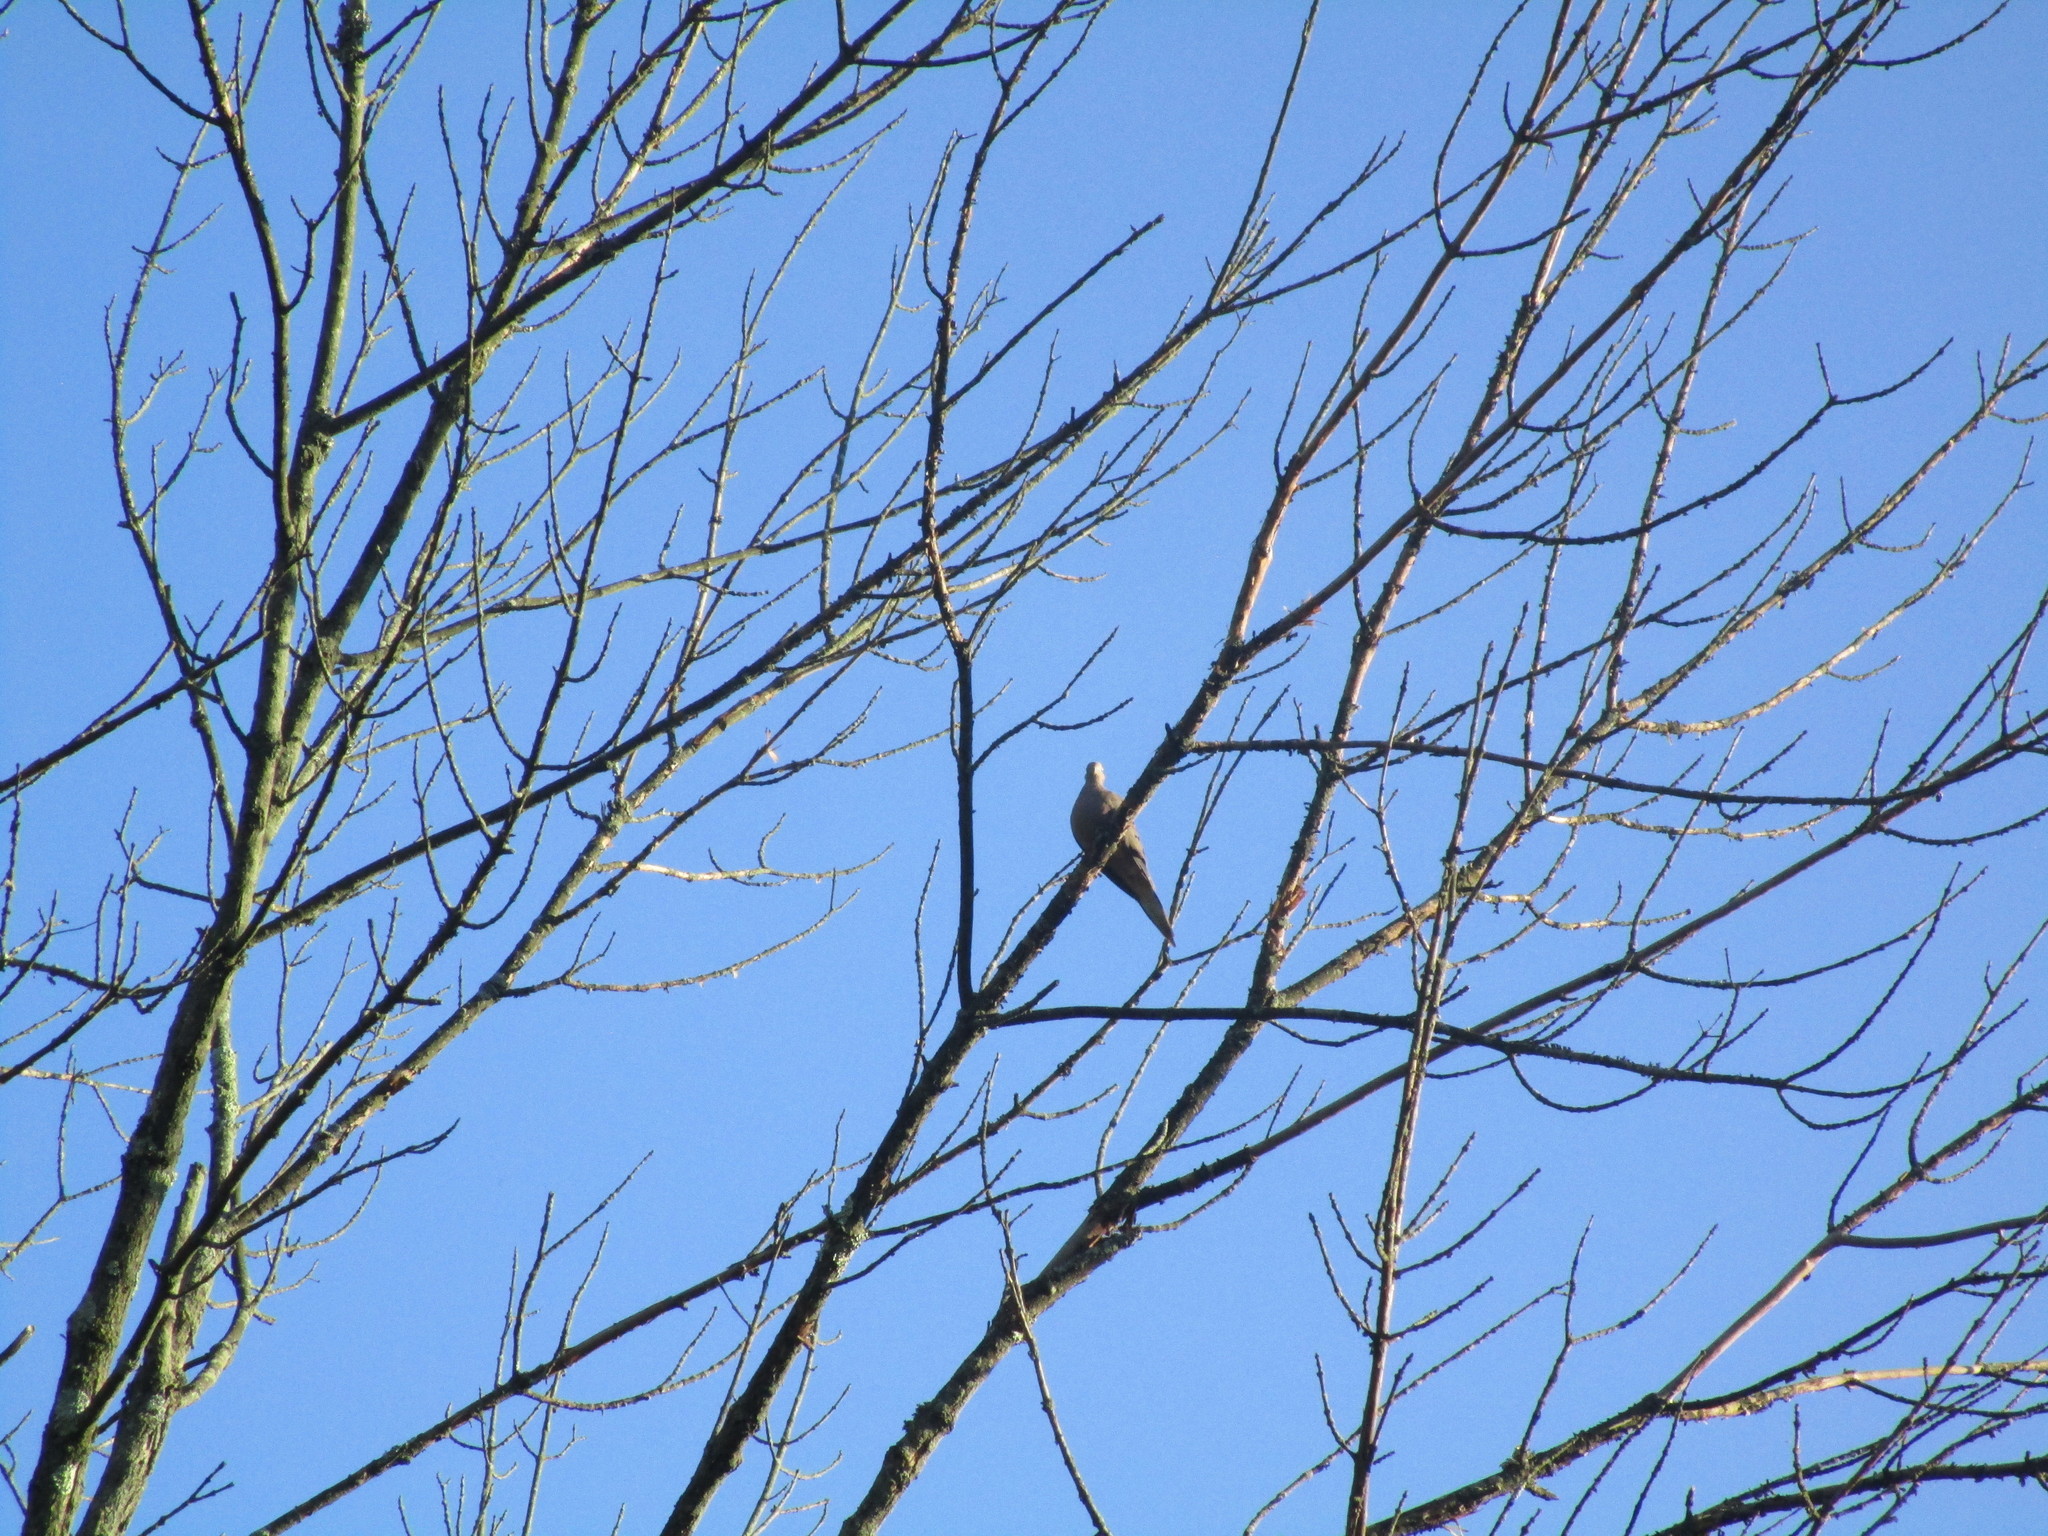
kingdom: Animalia
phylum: Chordata
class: Aves
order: Columbiformes
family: Columbidae
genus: Zenaida
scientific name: Zenaida macroura
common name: Mourning dove
